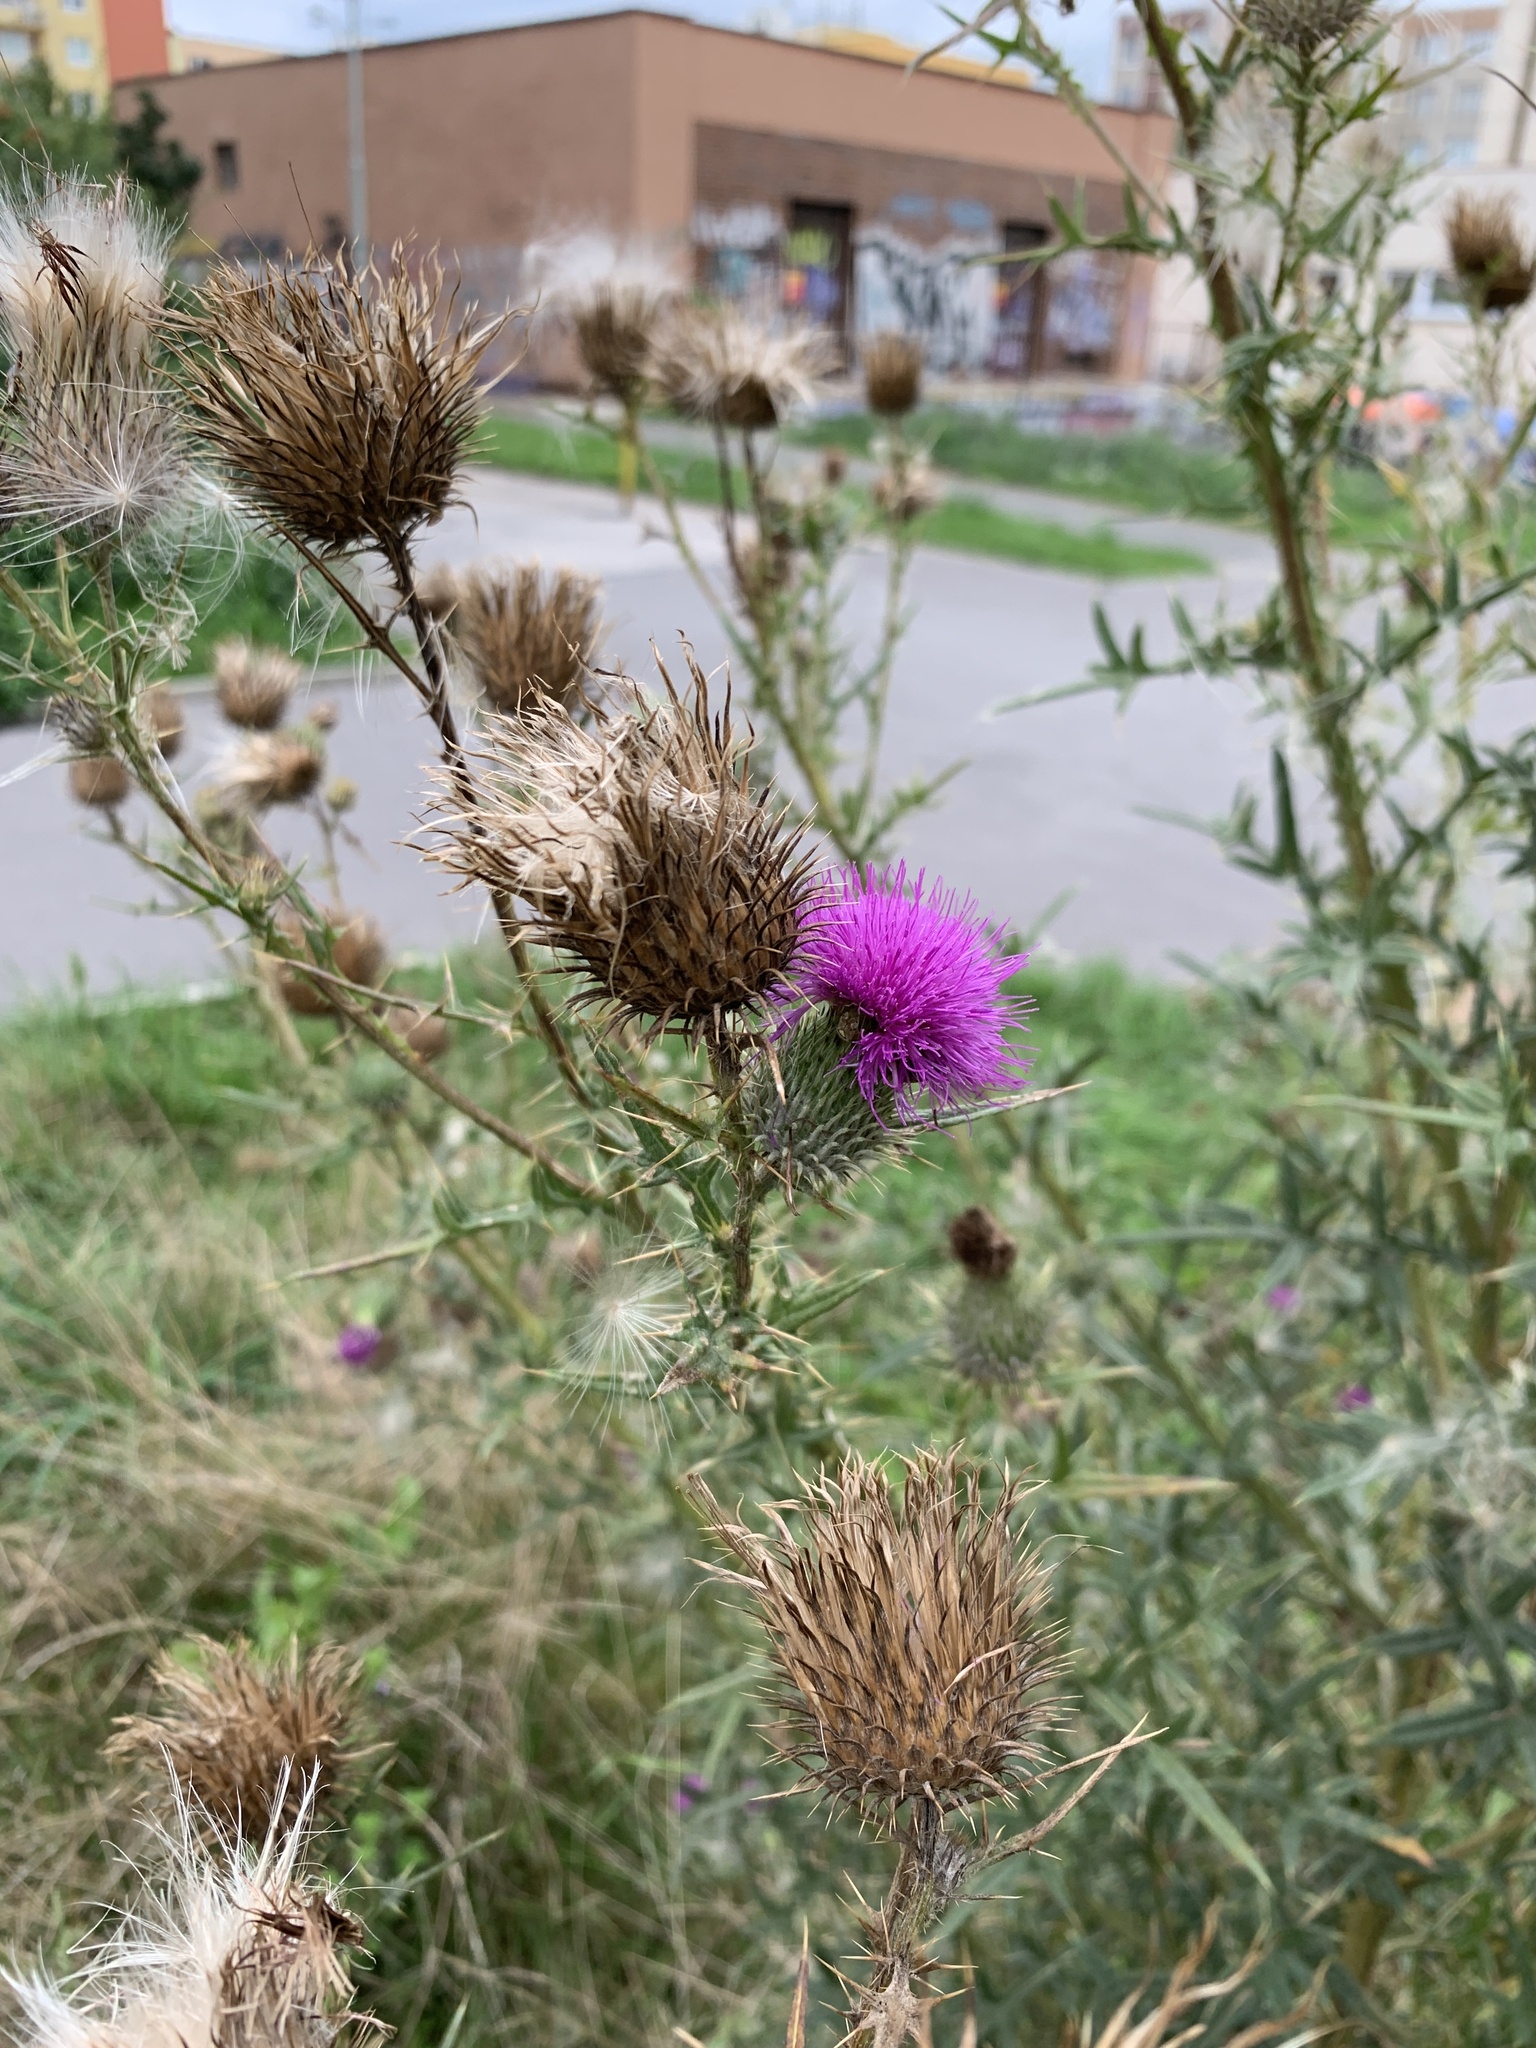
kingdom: Plantae
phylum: Tracheophyta
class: Magnoliopsida
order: Asterales
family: Asteraceae
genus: Cirsium
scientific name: Cirsium vulgare
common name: Bull thistle
